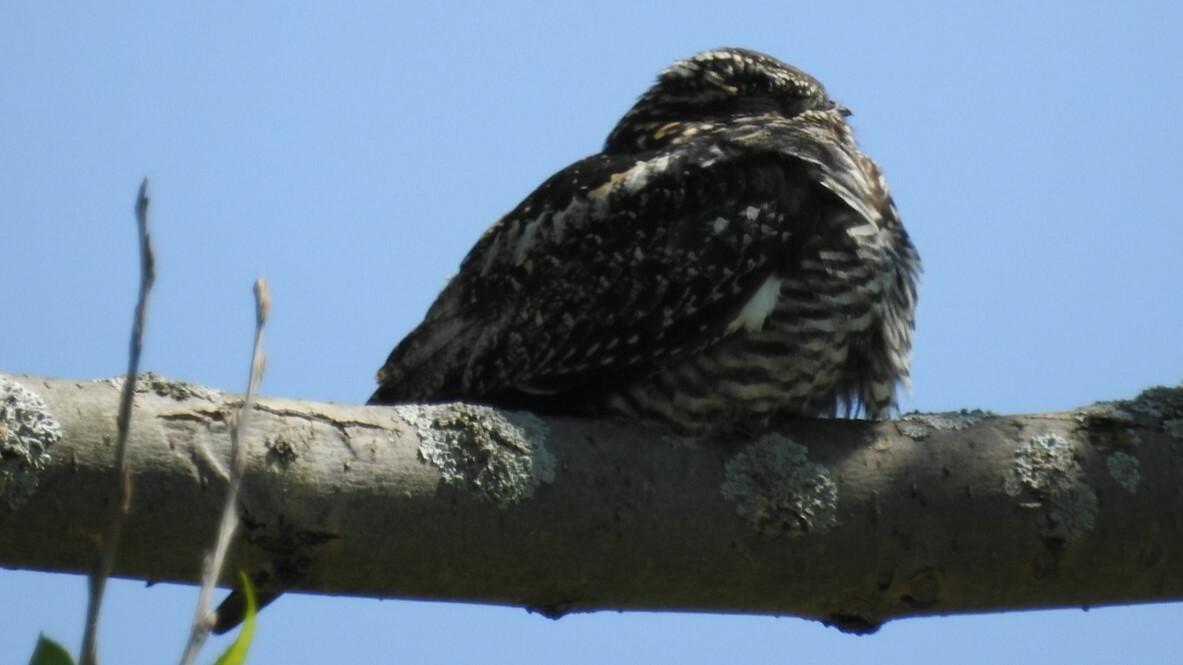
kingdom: Animalia
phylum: Chordata
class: Aves
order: Caprimulgiformes
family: Caprimulgidae
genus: Chordeiles
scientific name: Chordeiles minor
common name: Common nighthawk
